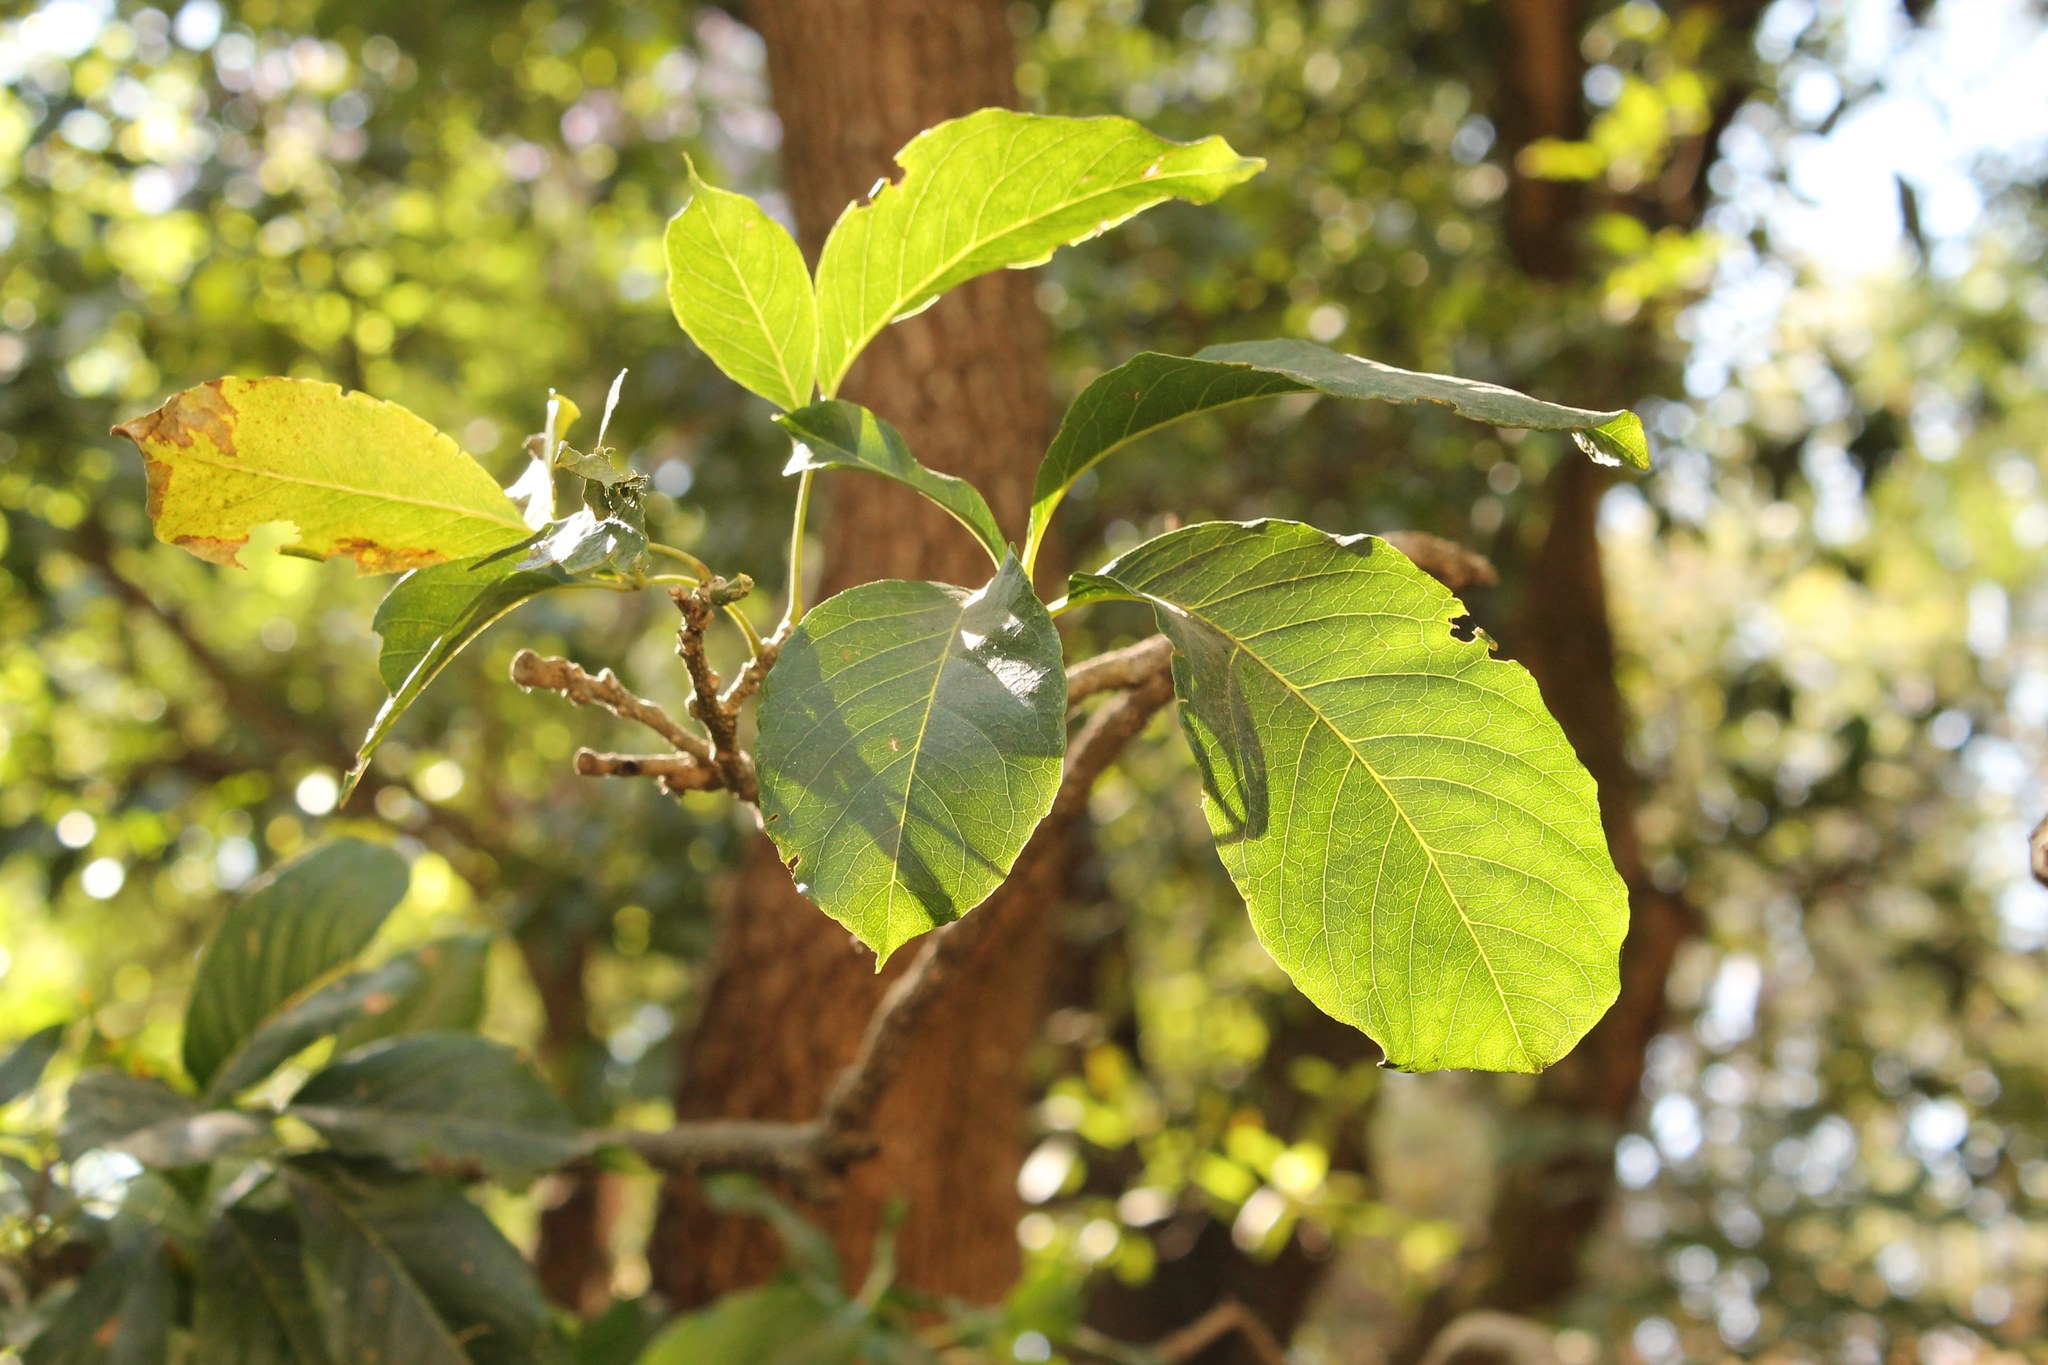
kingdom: Plantae
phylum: Tracheophyta
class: Magnoliopsida
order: Sapindales
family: Rutaceae
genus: Casimiroa
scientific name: Casimiroa edulis
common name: Mexican-apple
